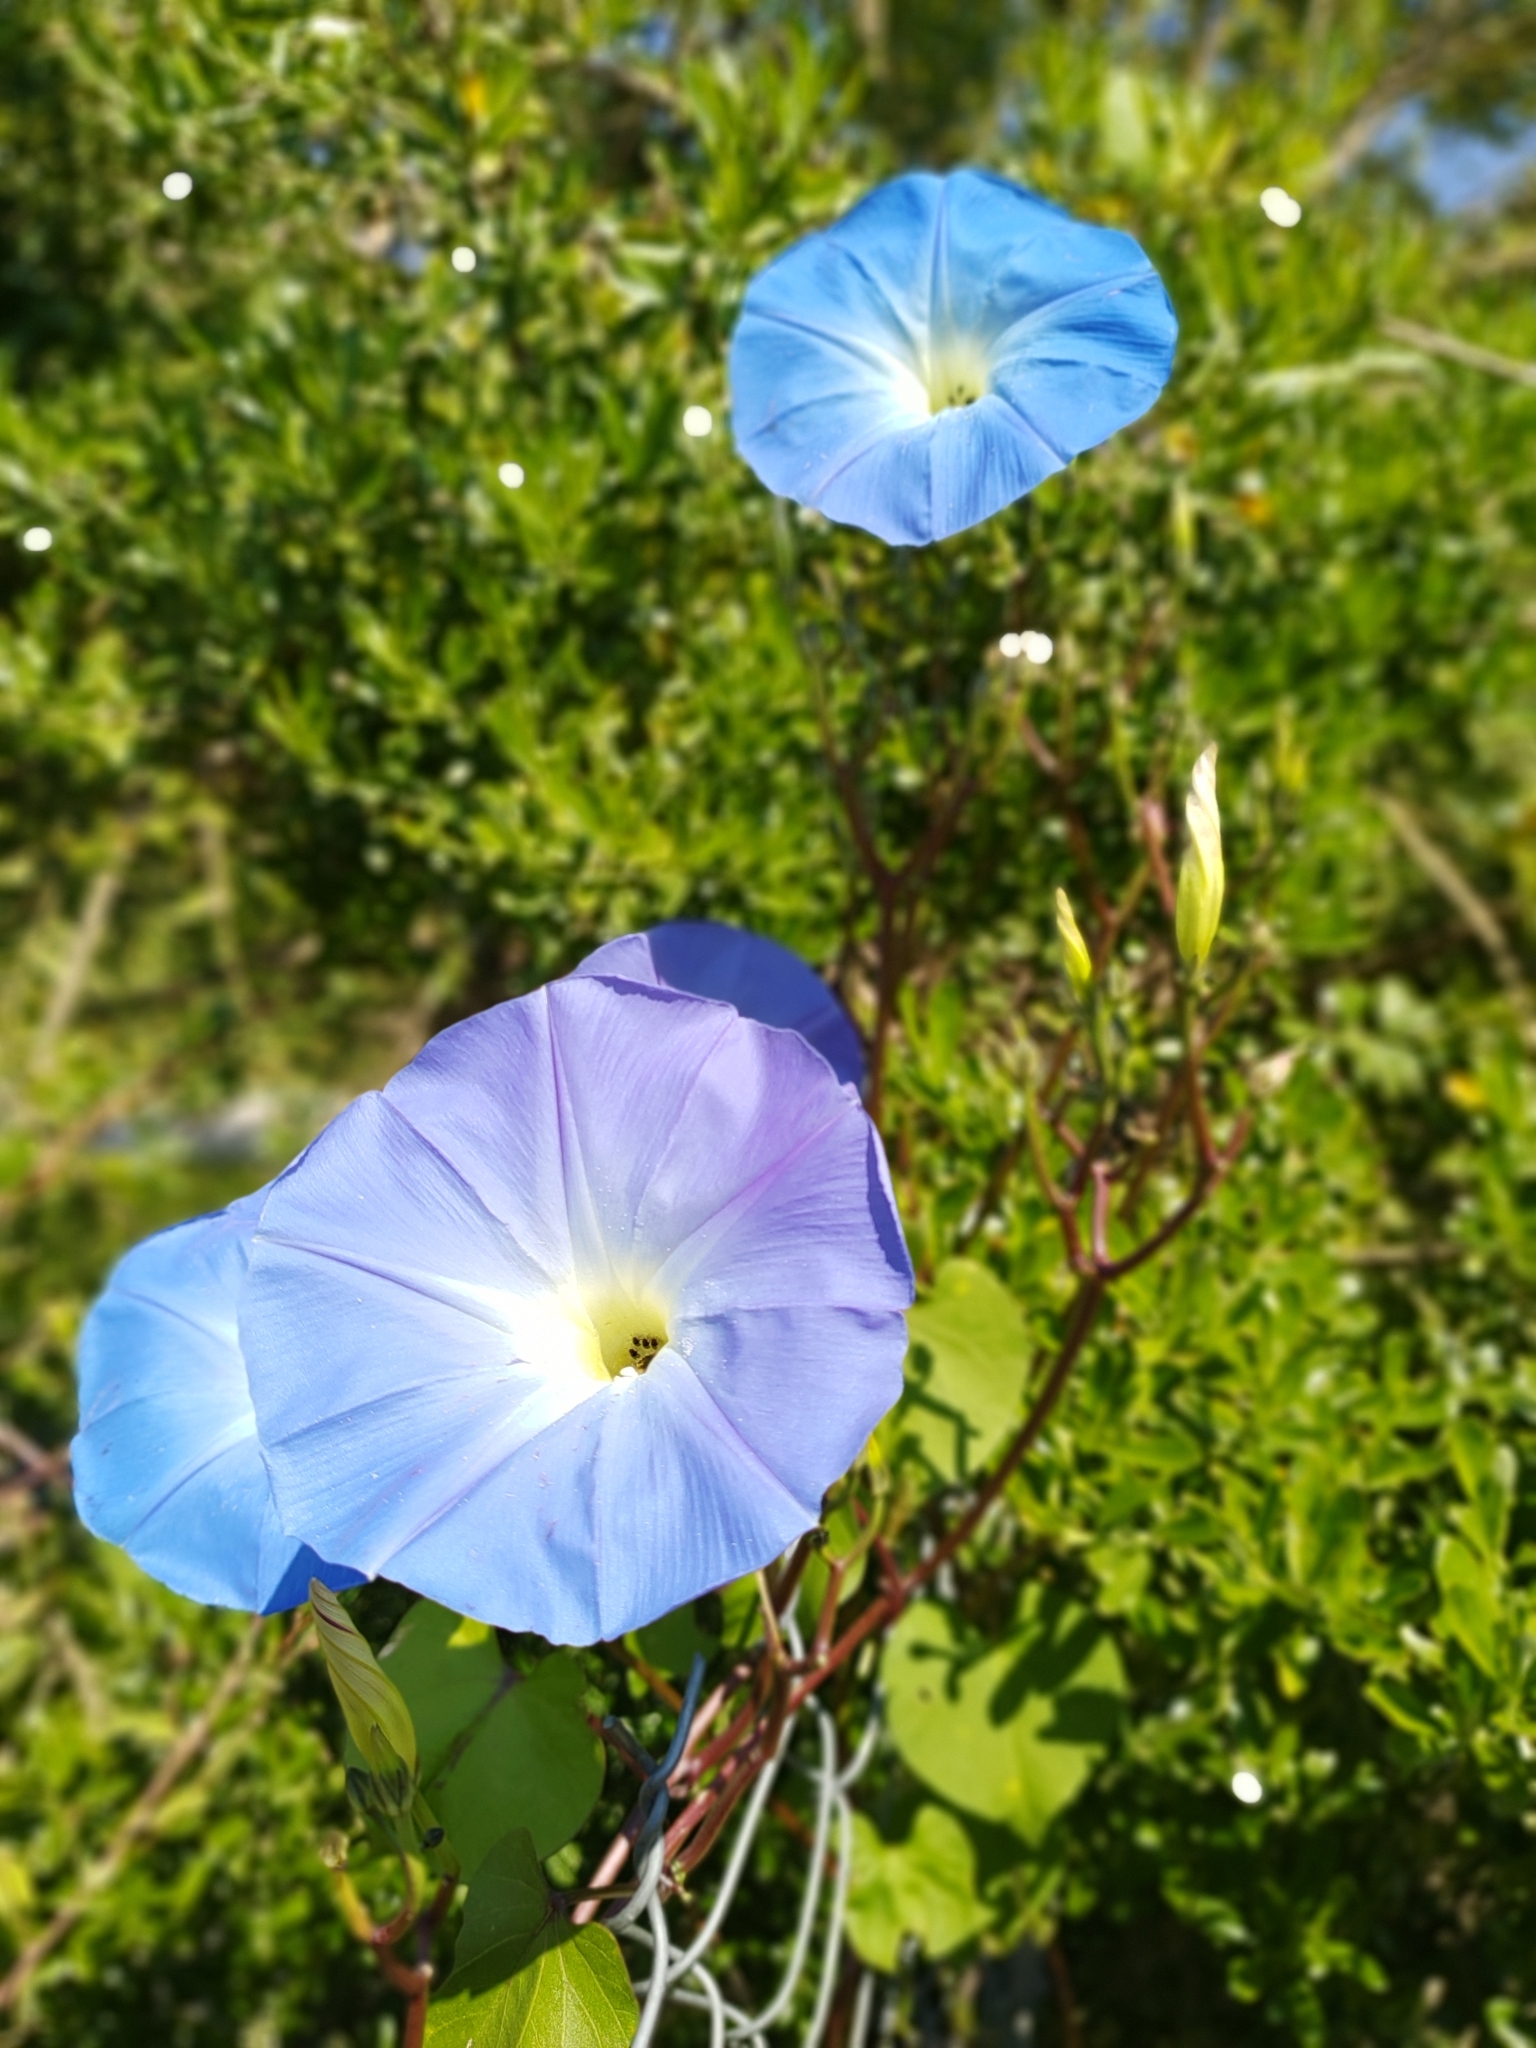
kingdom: Plantae
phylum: Tracheophyta
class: Magnoliopsida
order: Solanales
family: Convolvulaceae
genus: Ipomoea
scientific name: Ipomoea tricolor
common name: Morning-glory
